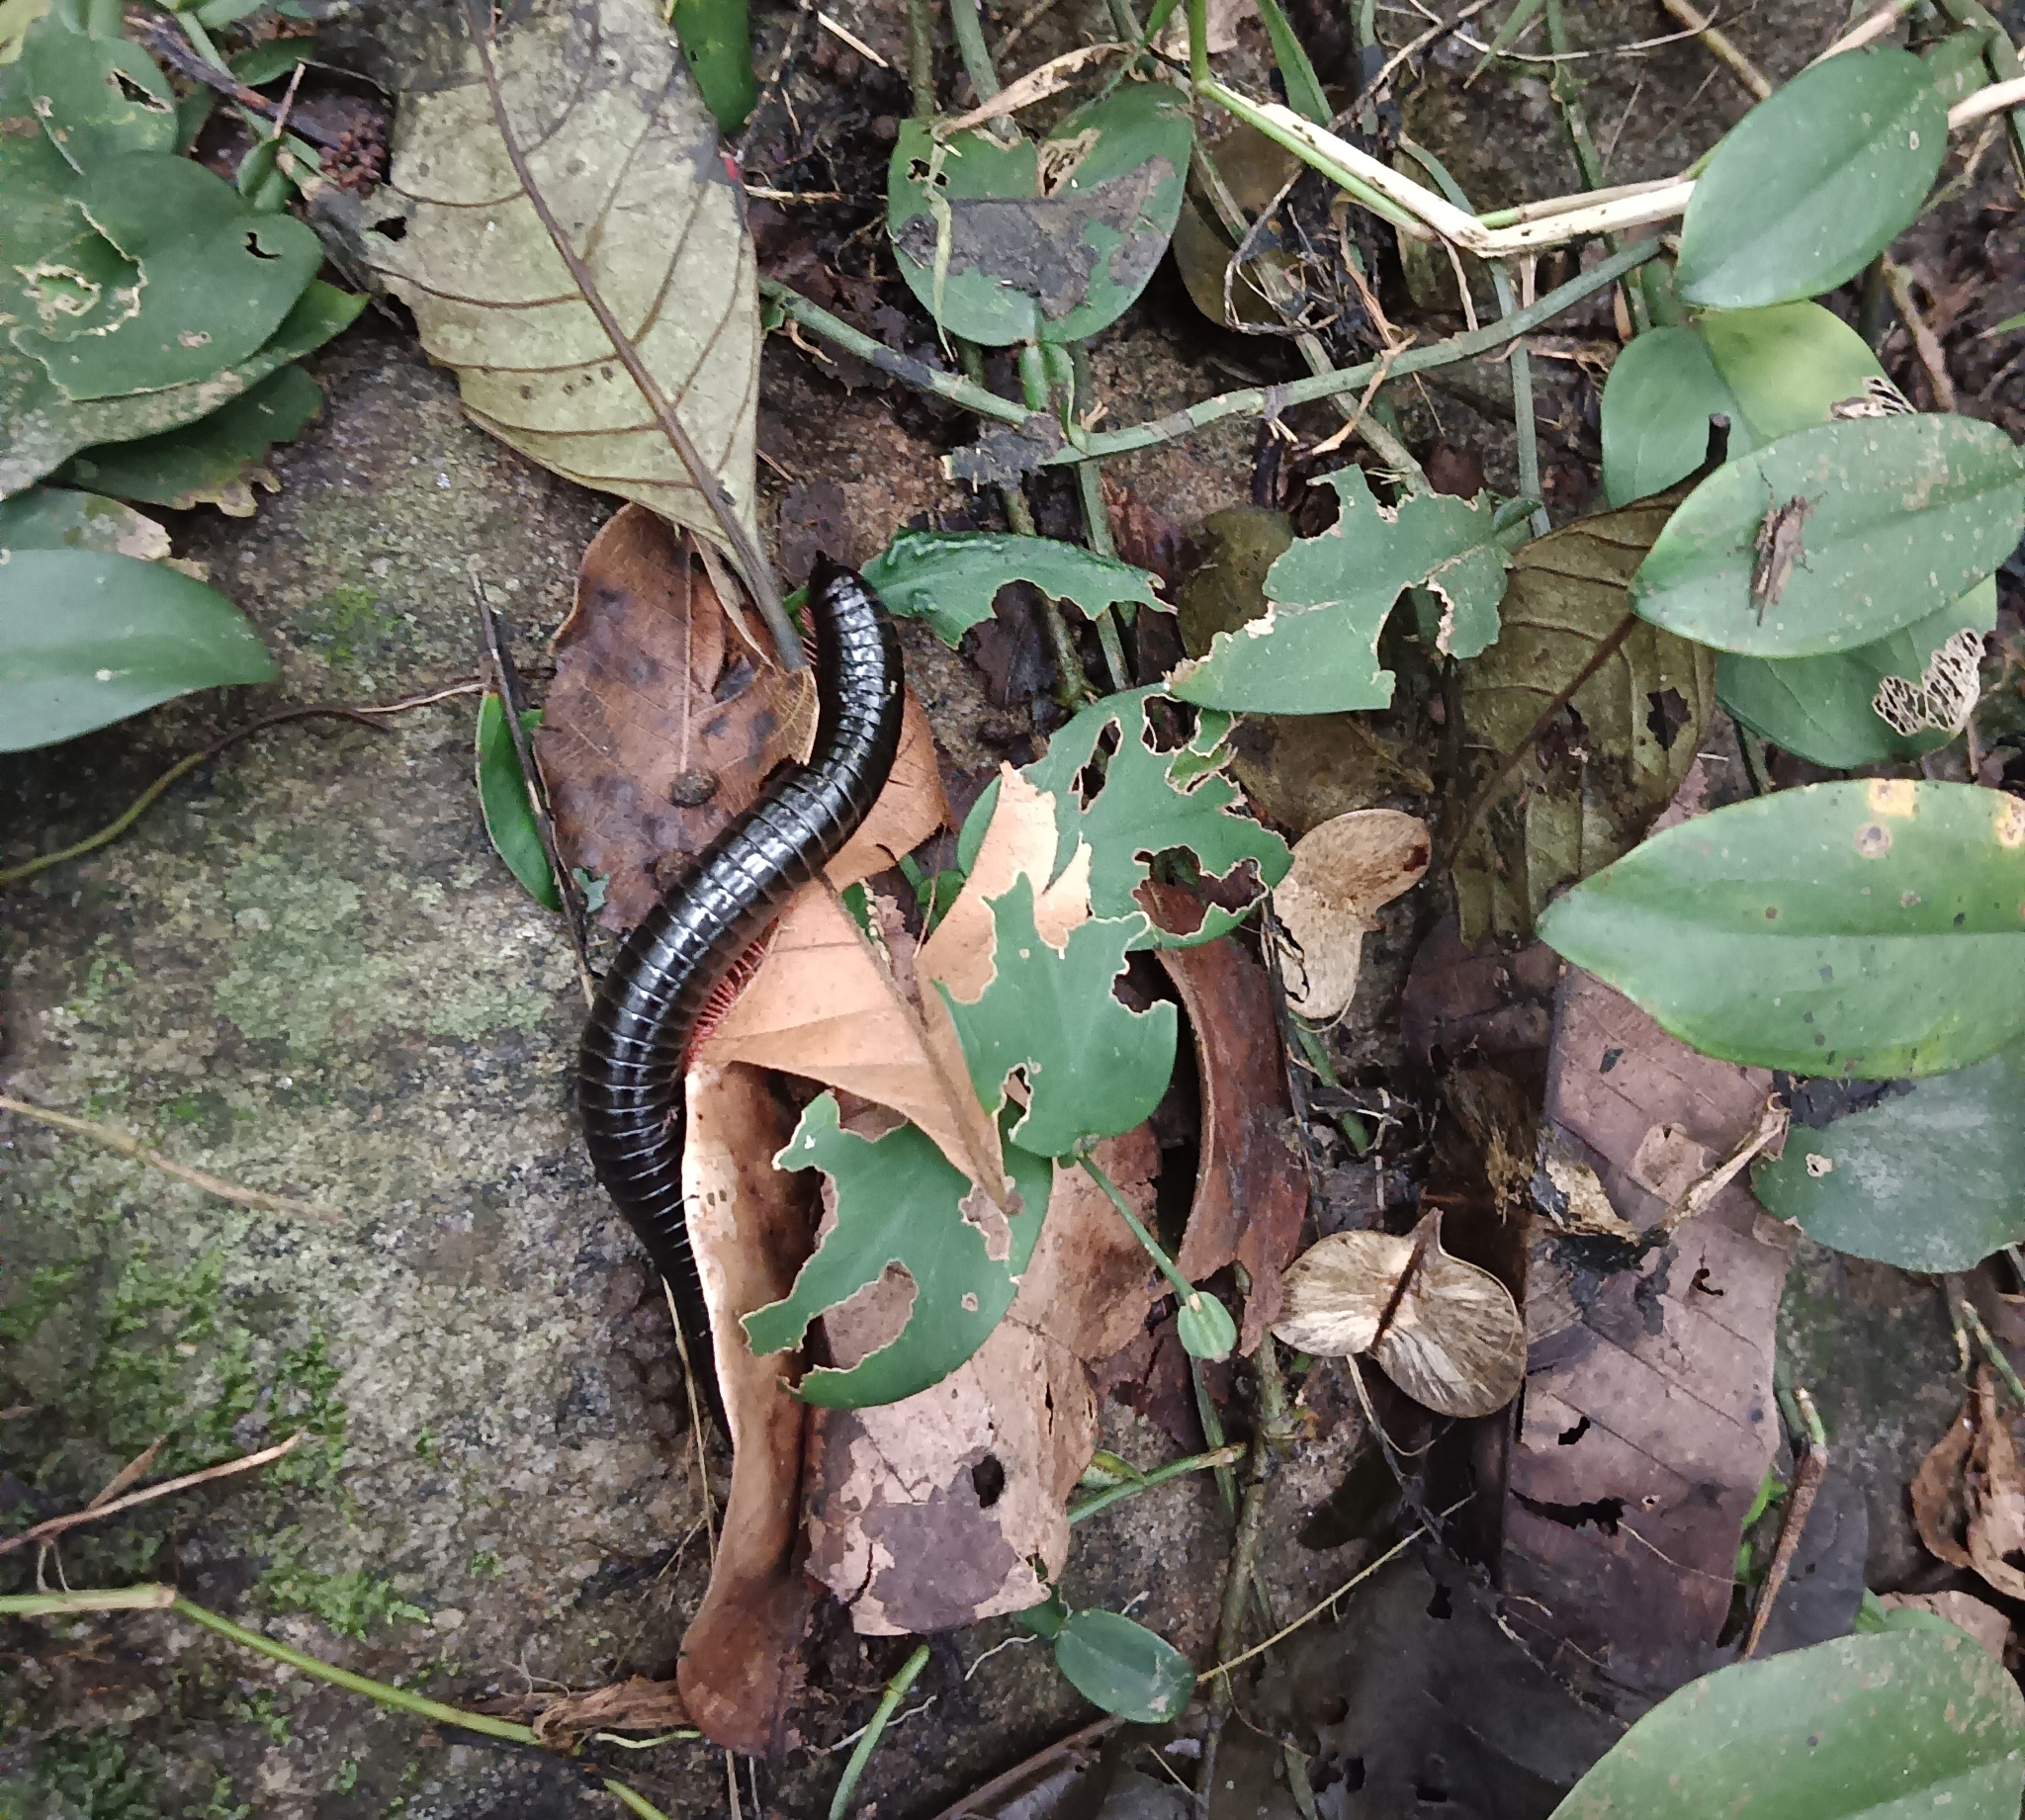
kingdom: Animalia
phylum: Arthropoda
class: Diplopoda
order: Spirostreptida
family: Harpagophoridae
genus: Phyllogonostreptus
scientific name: Phyllogonostreptus nigrolabiatus
